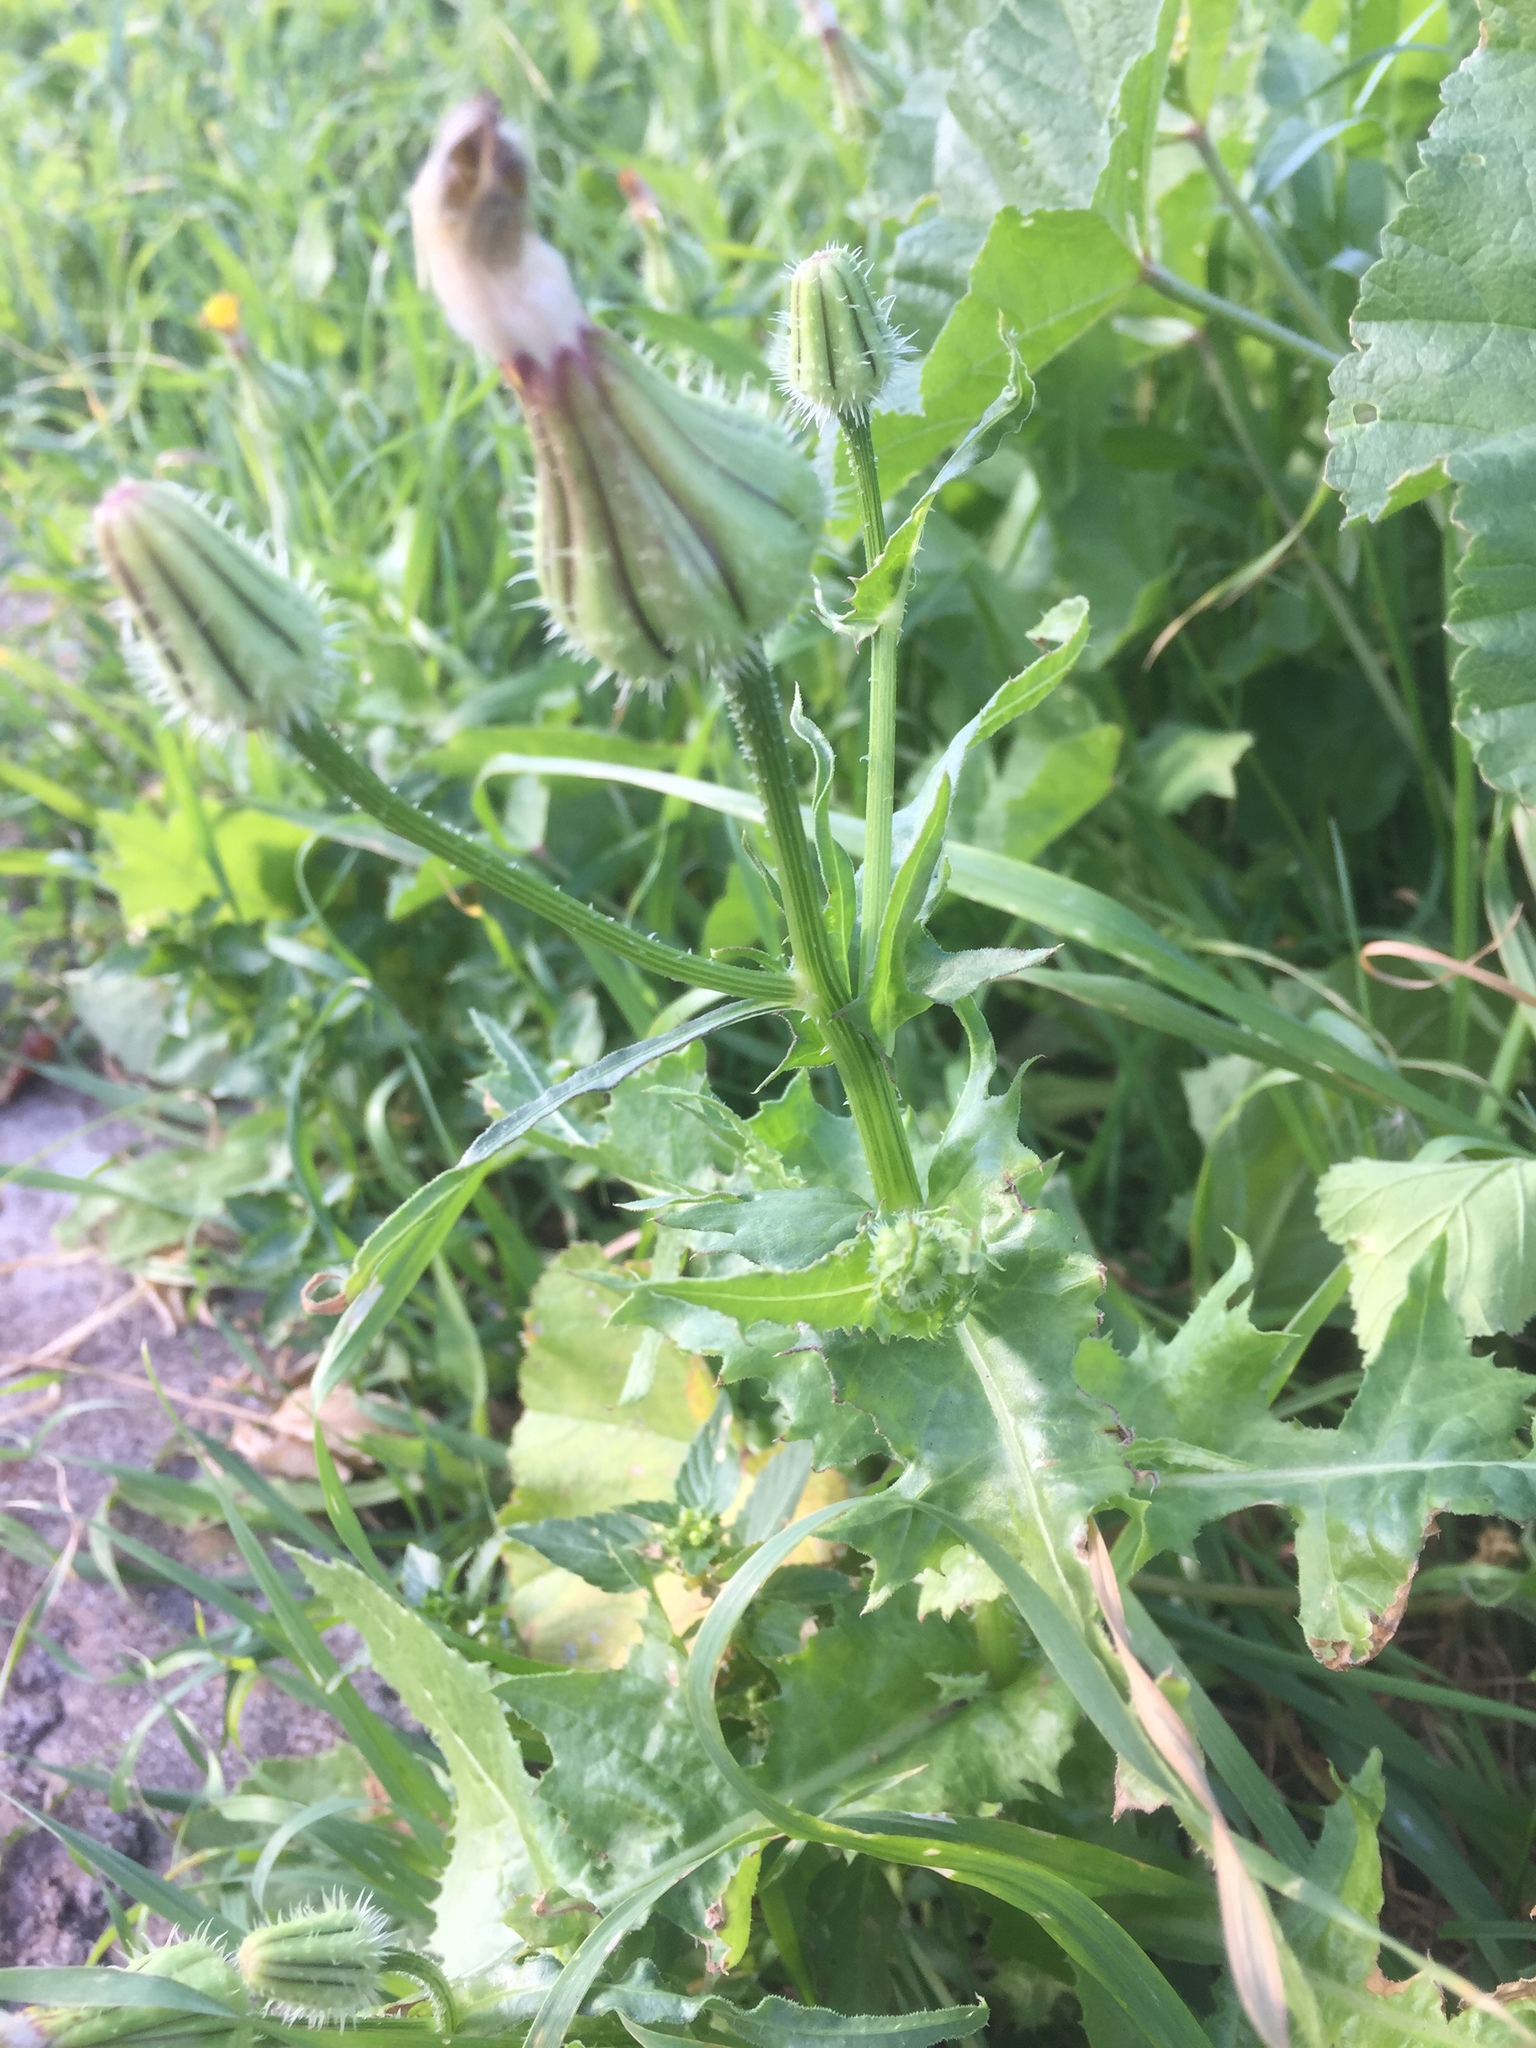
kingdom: Plantae
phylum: Tracheophyta
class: Magnoliopsida
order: Asterales
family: Asteraceae
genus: Urospermum
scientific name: Urospermum picroides
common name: False hawkbit
